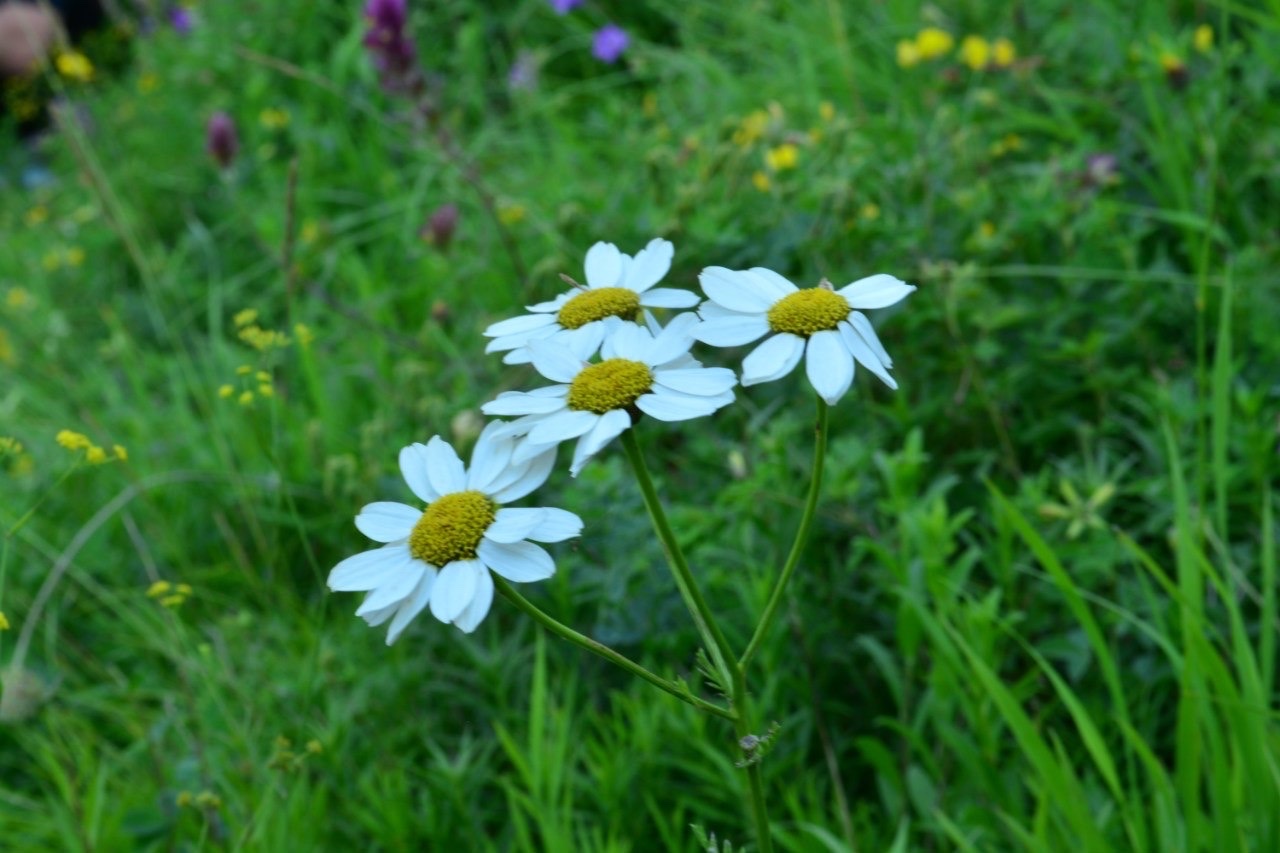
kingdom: Plantae
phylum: Tracheophyta
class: Magnoliopsida
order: Asterales
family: Asteraceae
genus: Tanacetum
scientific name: Tanacetum corymbosum
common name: Scentless feverfew
